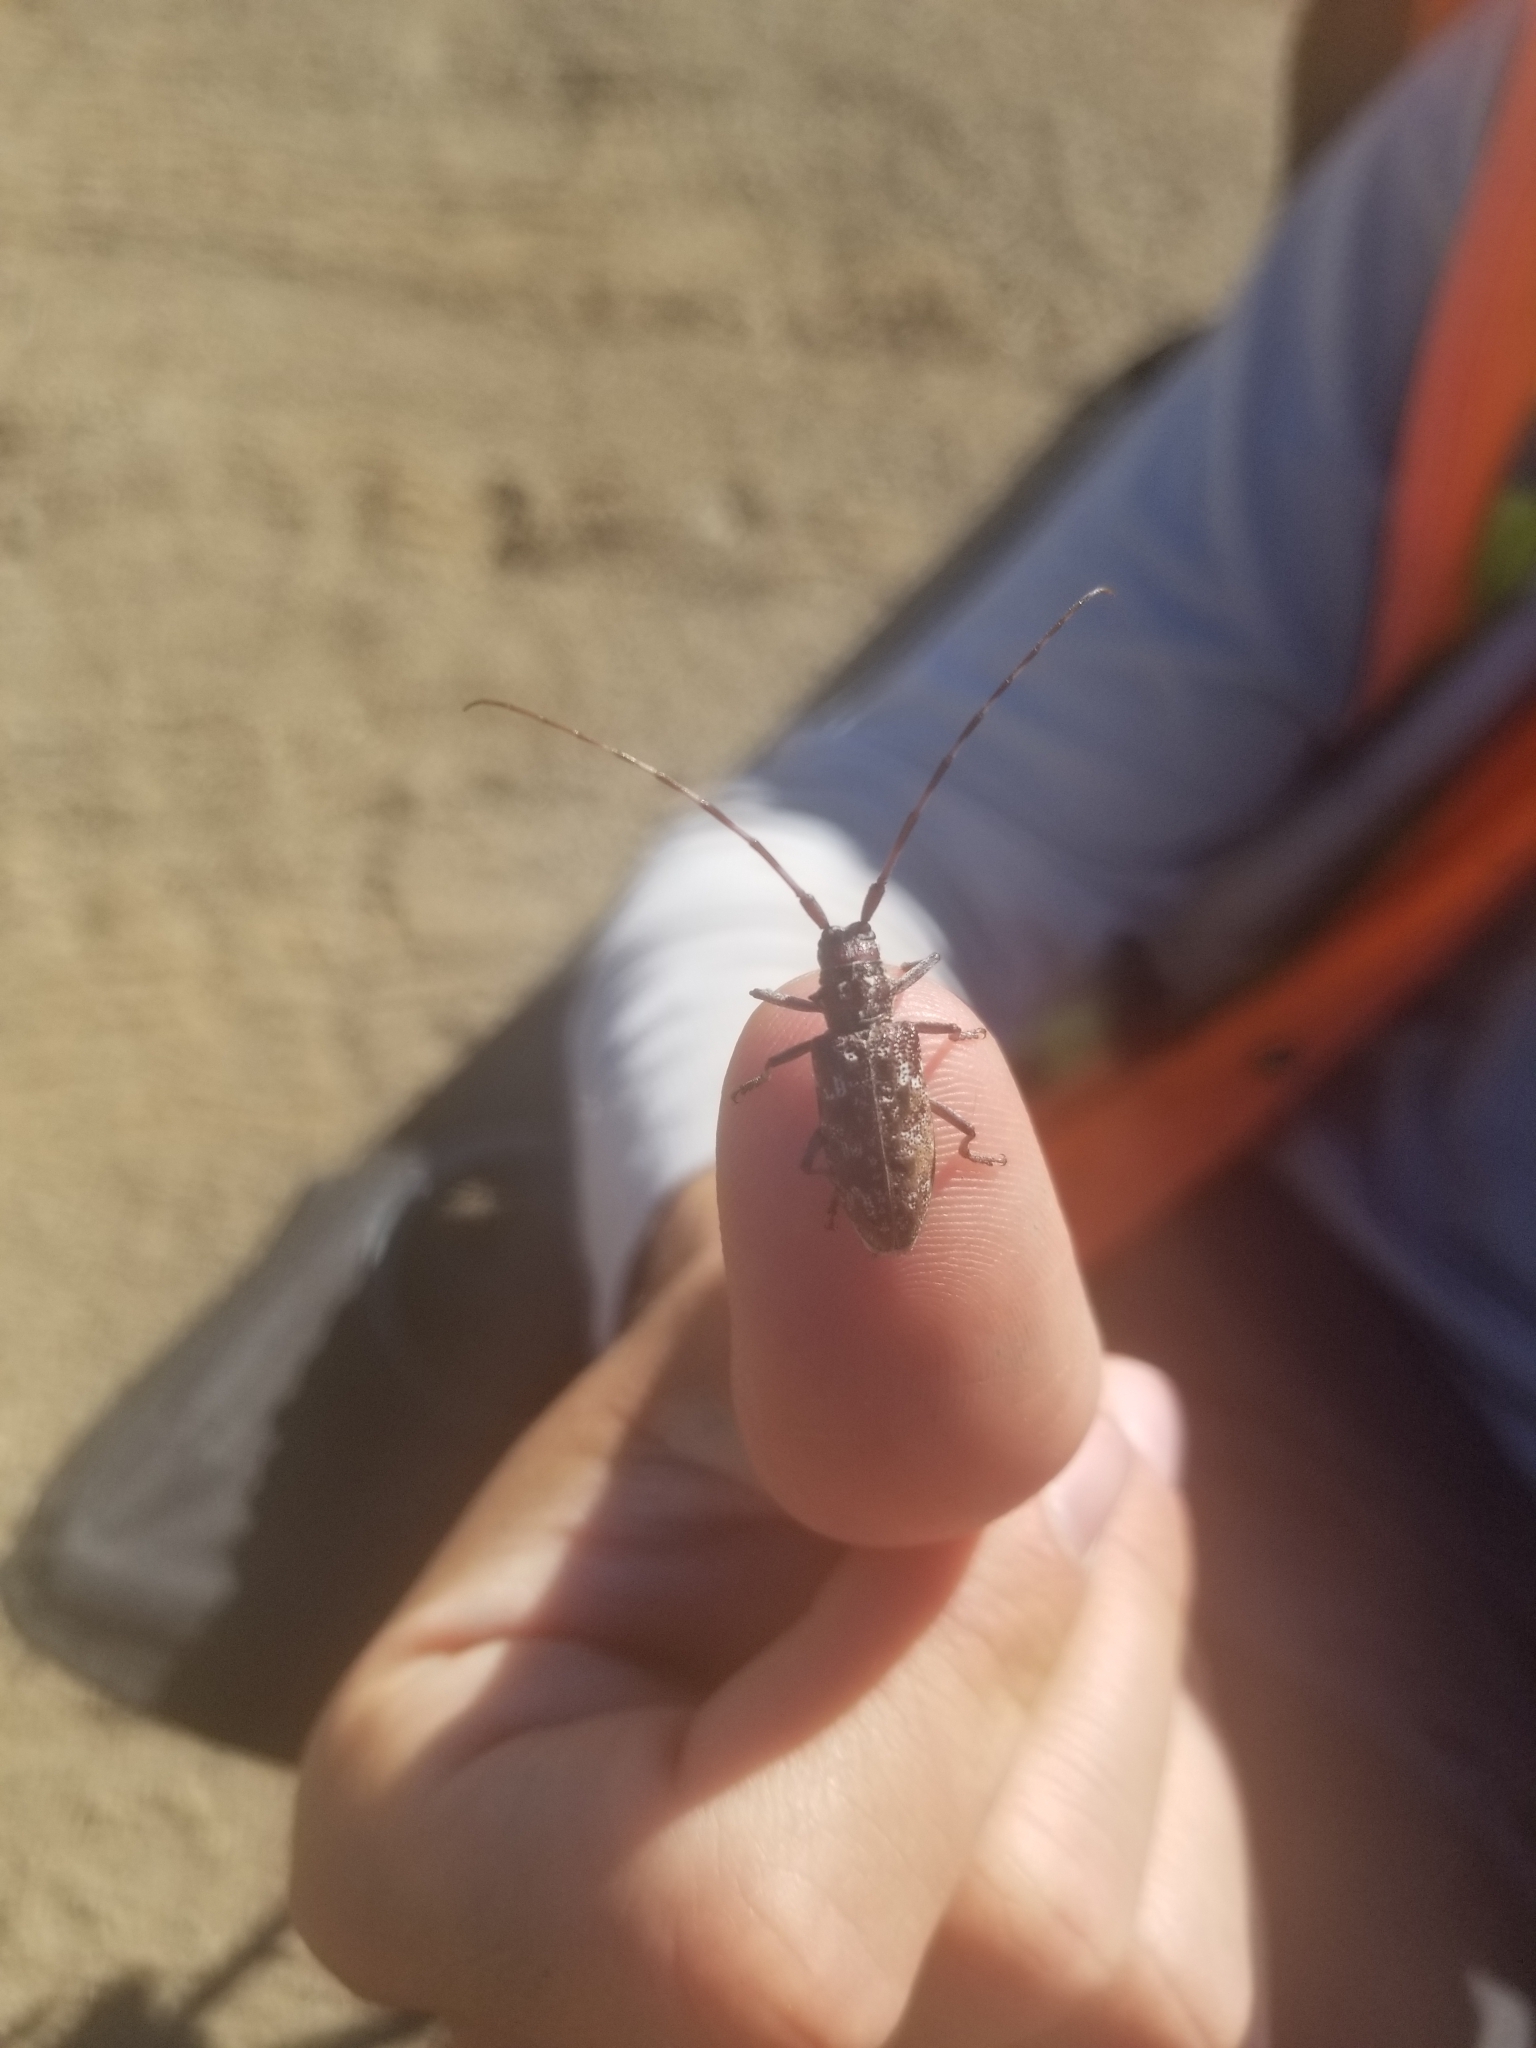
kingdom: Animalia
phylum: Arthropoda
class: Insecta
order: Coleoptera
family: Cerambycidae
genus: Monochamus
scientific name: Monochamus obtusus
